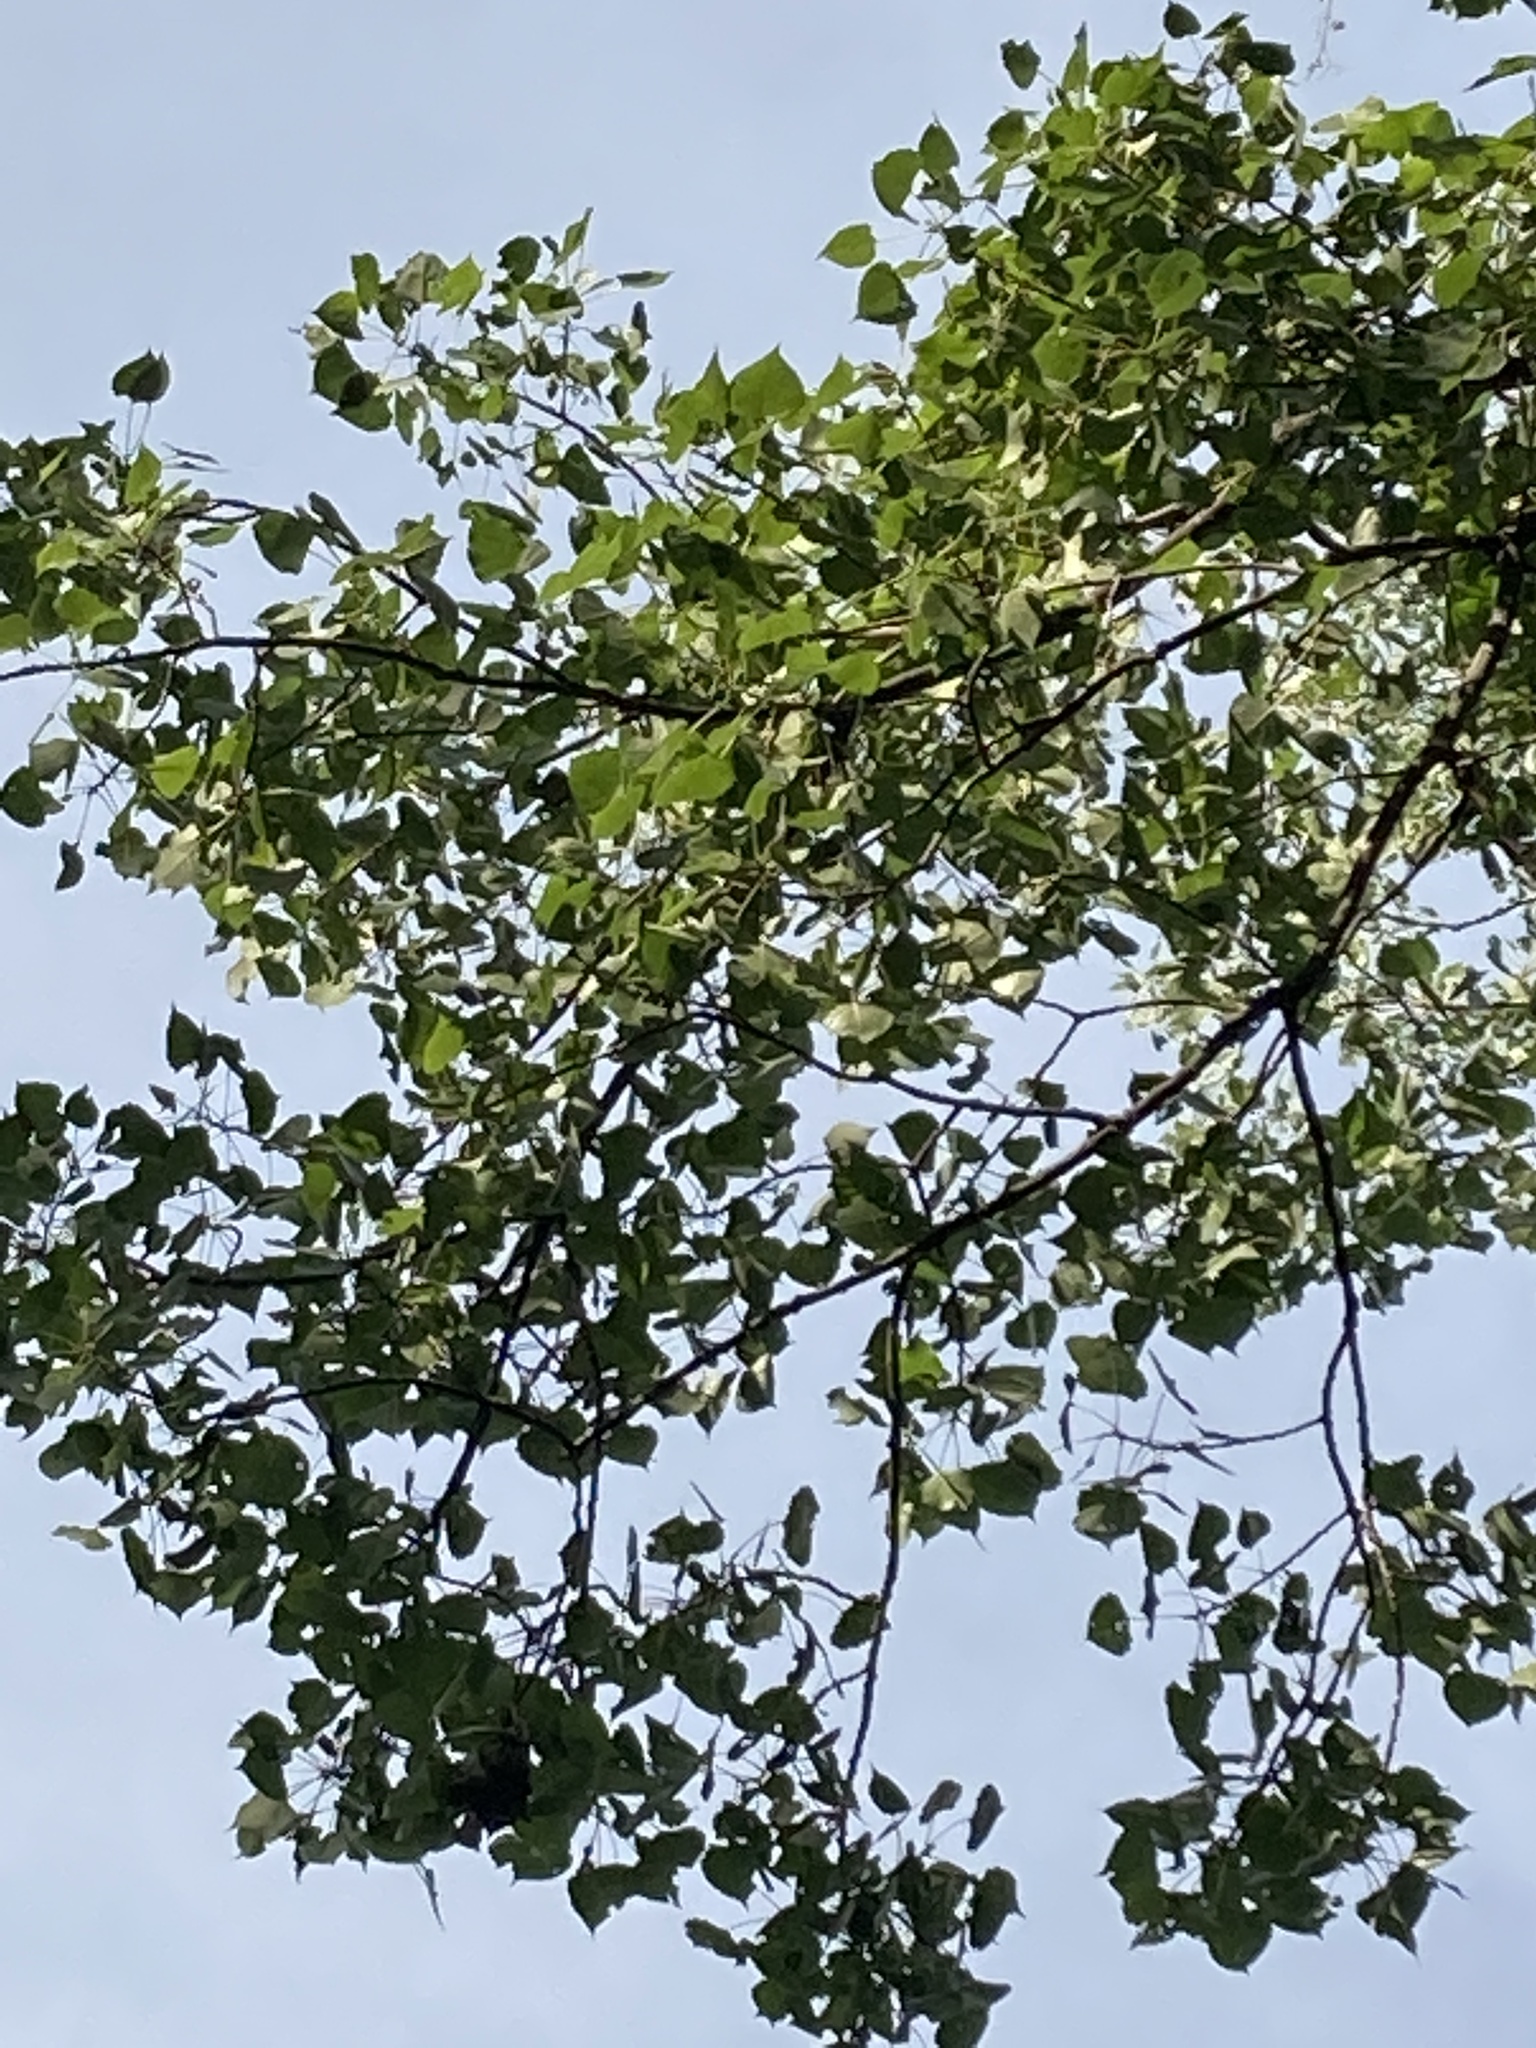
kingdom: Plantae
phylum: Tracheophyta
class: Magnoliopsida
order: Malpighiales
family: Salicaceae
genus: Populus
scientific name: Populus deltoides
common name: Eastern cottonwood
